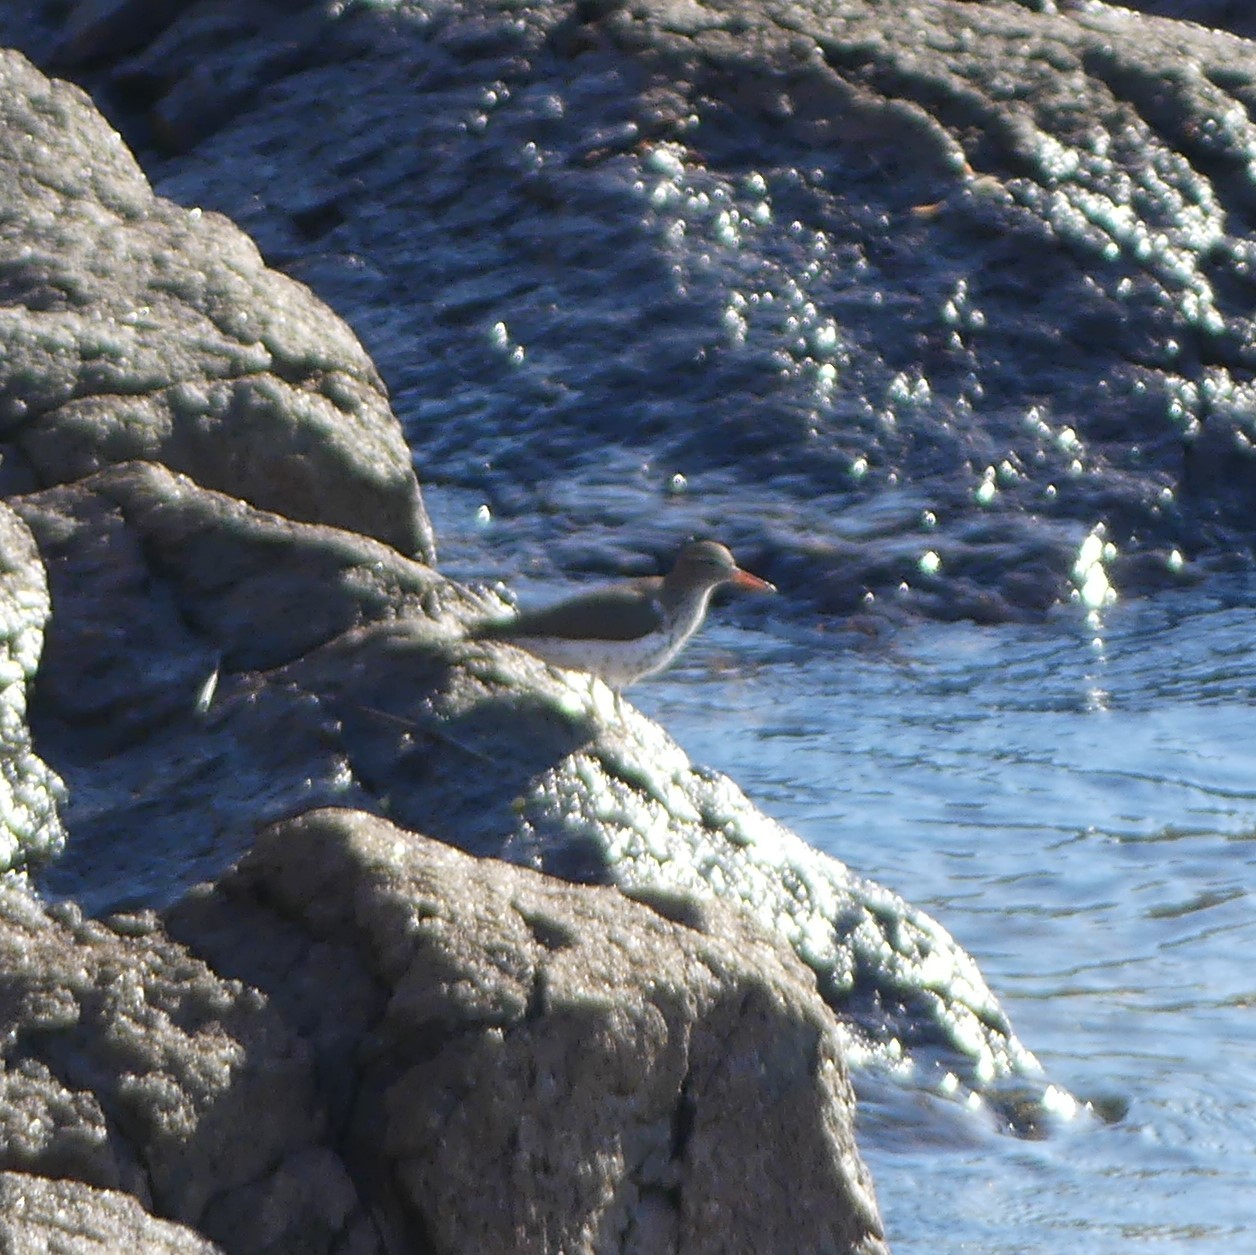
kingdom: Animalia
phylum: Chordata
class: Aves
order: Charadriiformes
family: Scolopacidae
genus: Actitis
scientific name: Actitis macularius
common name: Spotted sandpiper
